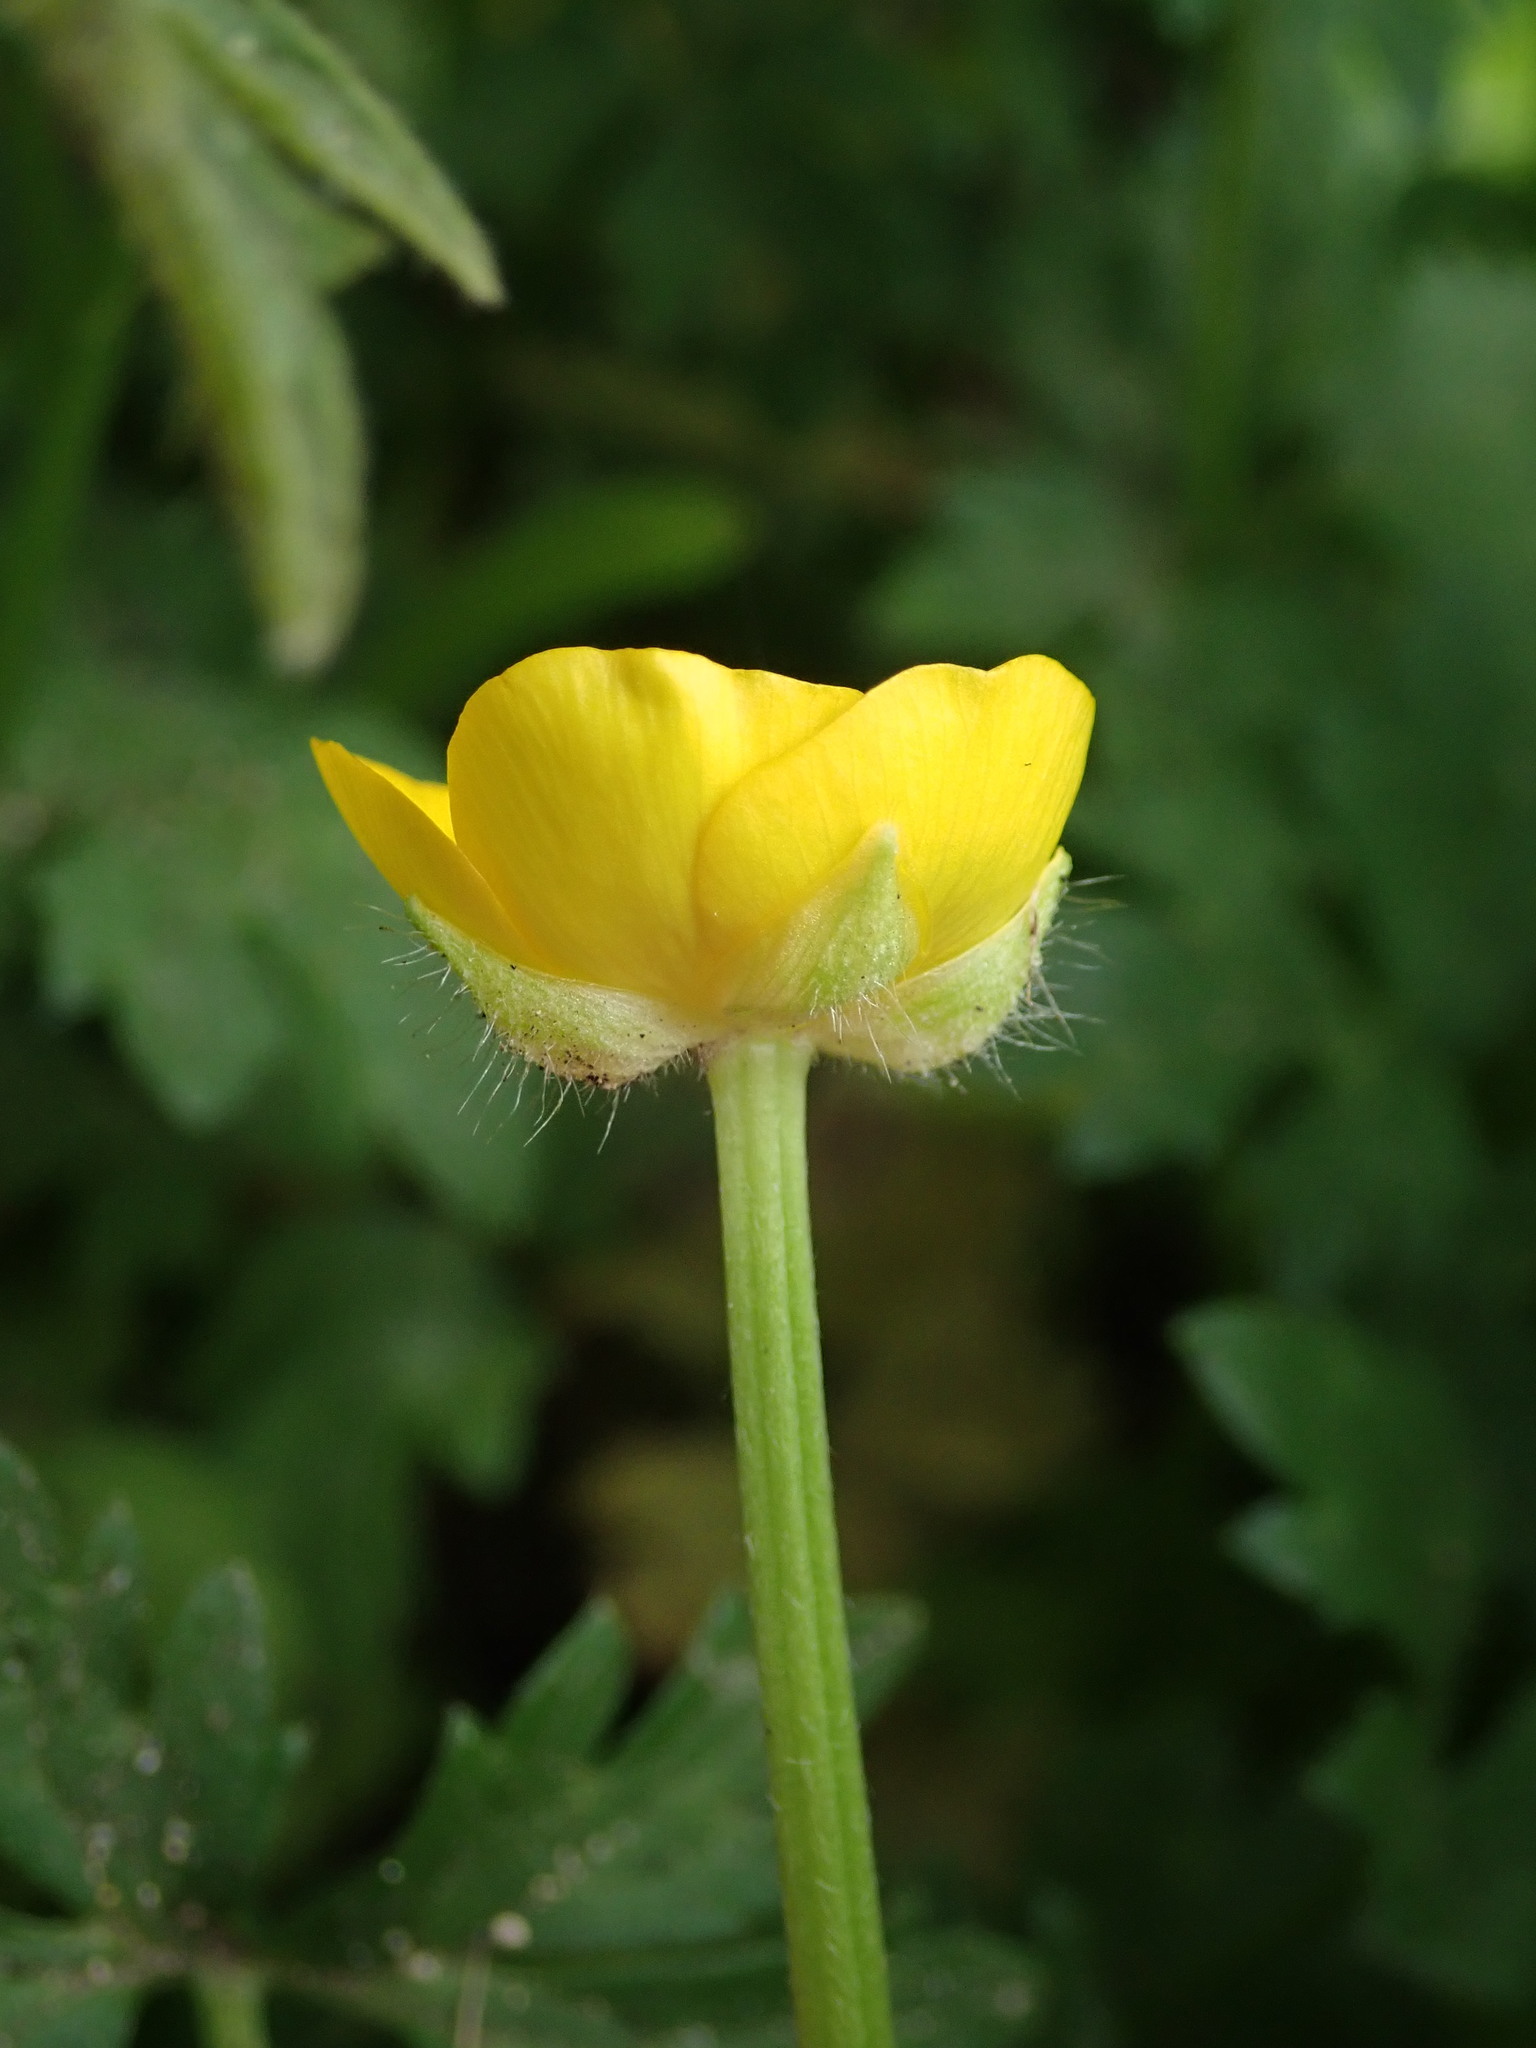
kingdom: Plantae
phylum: Tracheophyta
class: Magnoliopsida
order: Ranunculales
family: Ranunculaceae
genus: Ranunculus
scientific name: Ranunculus repens
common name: Creeping buttercup
